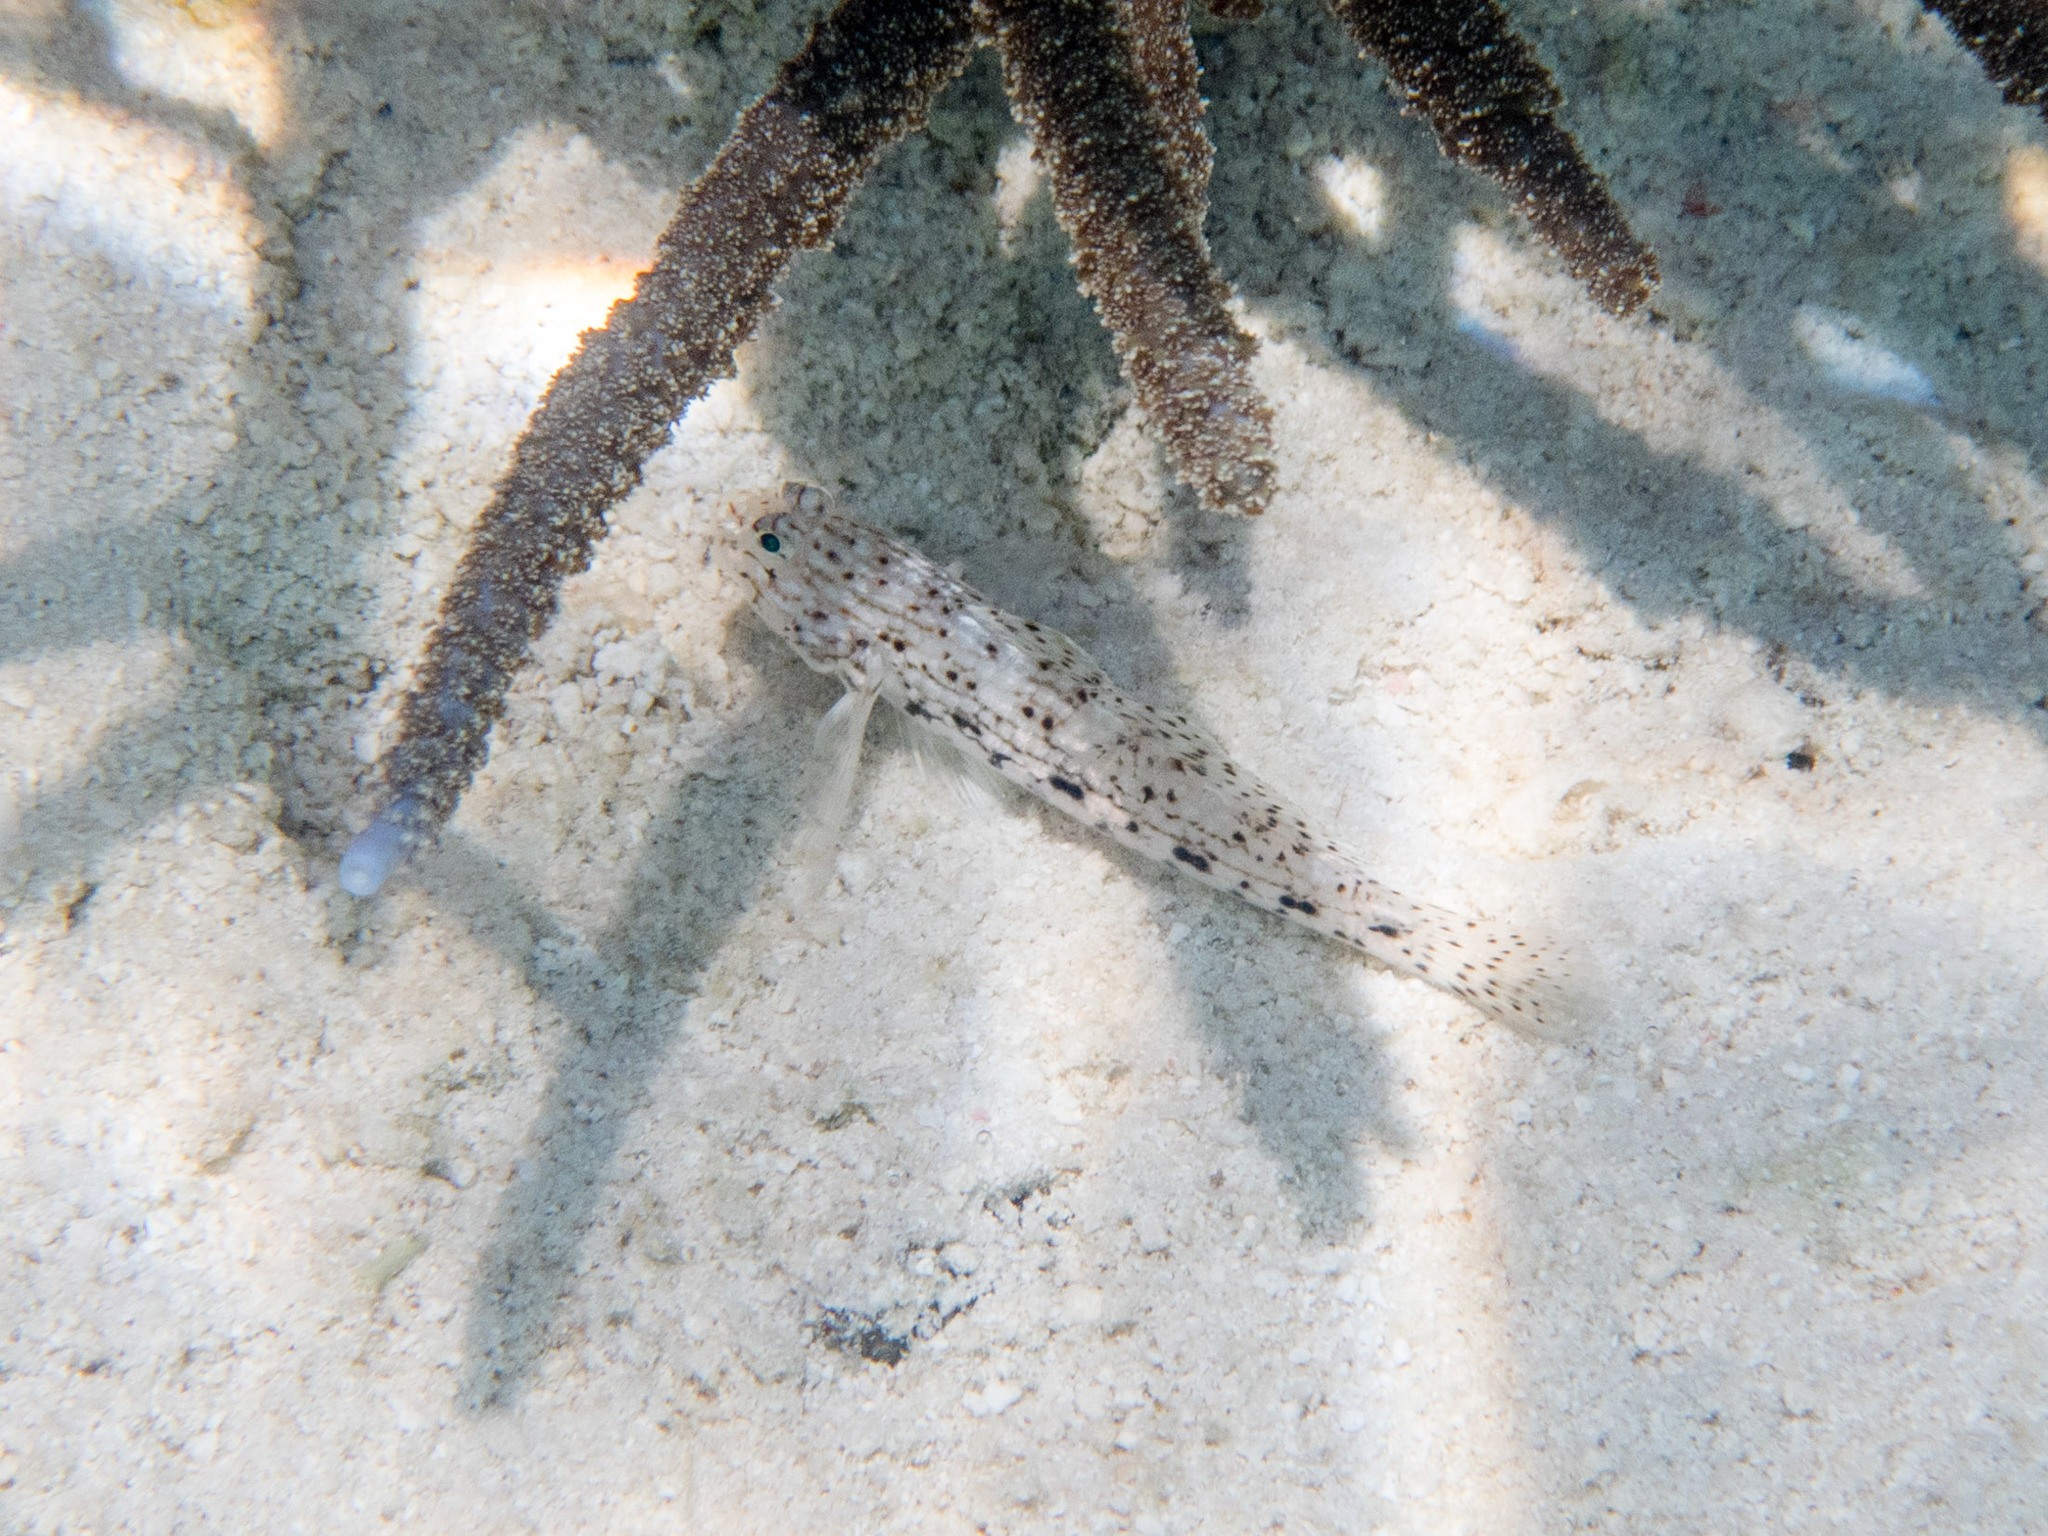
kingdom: Animalia
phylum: Chordata
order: Perciformes
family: Gobiidae
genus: Istigobius
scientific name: Istigobius decoratus
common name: Decorated goby
